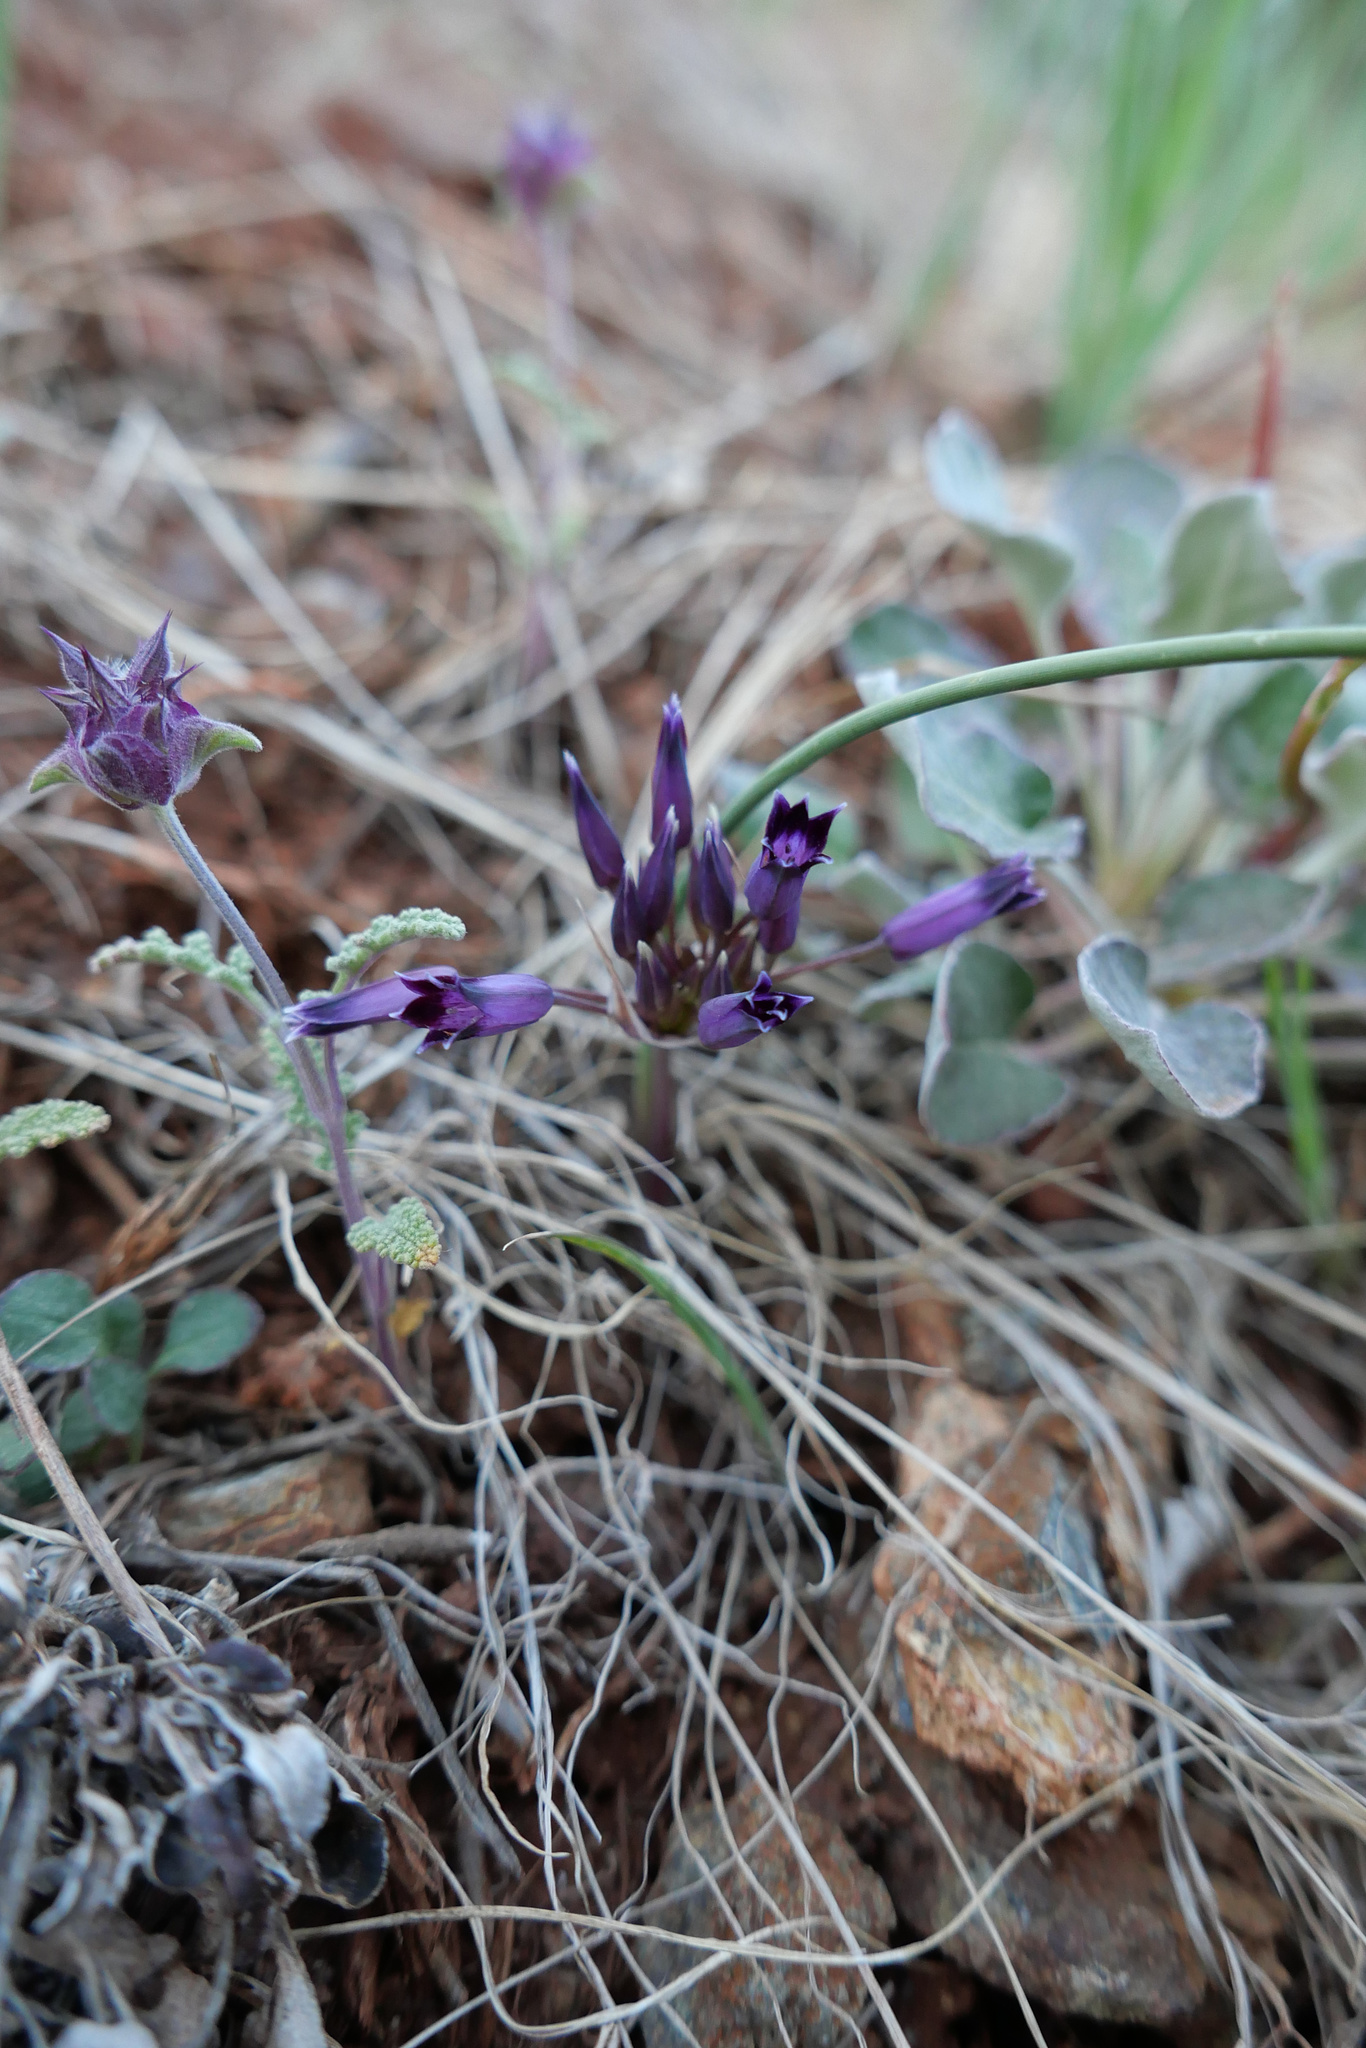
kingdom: Plantae
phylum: Tracheophyta
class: Liliopsida
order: Asparagales
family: Amaryllidaceae
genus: Allium
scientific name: Allium
